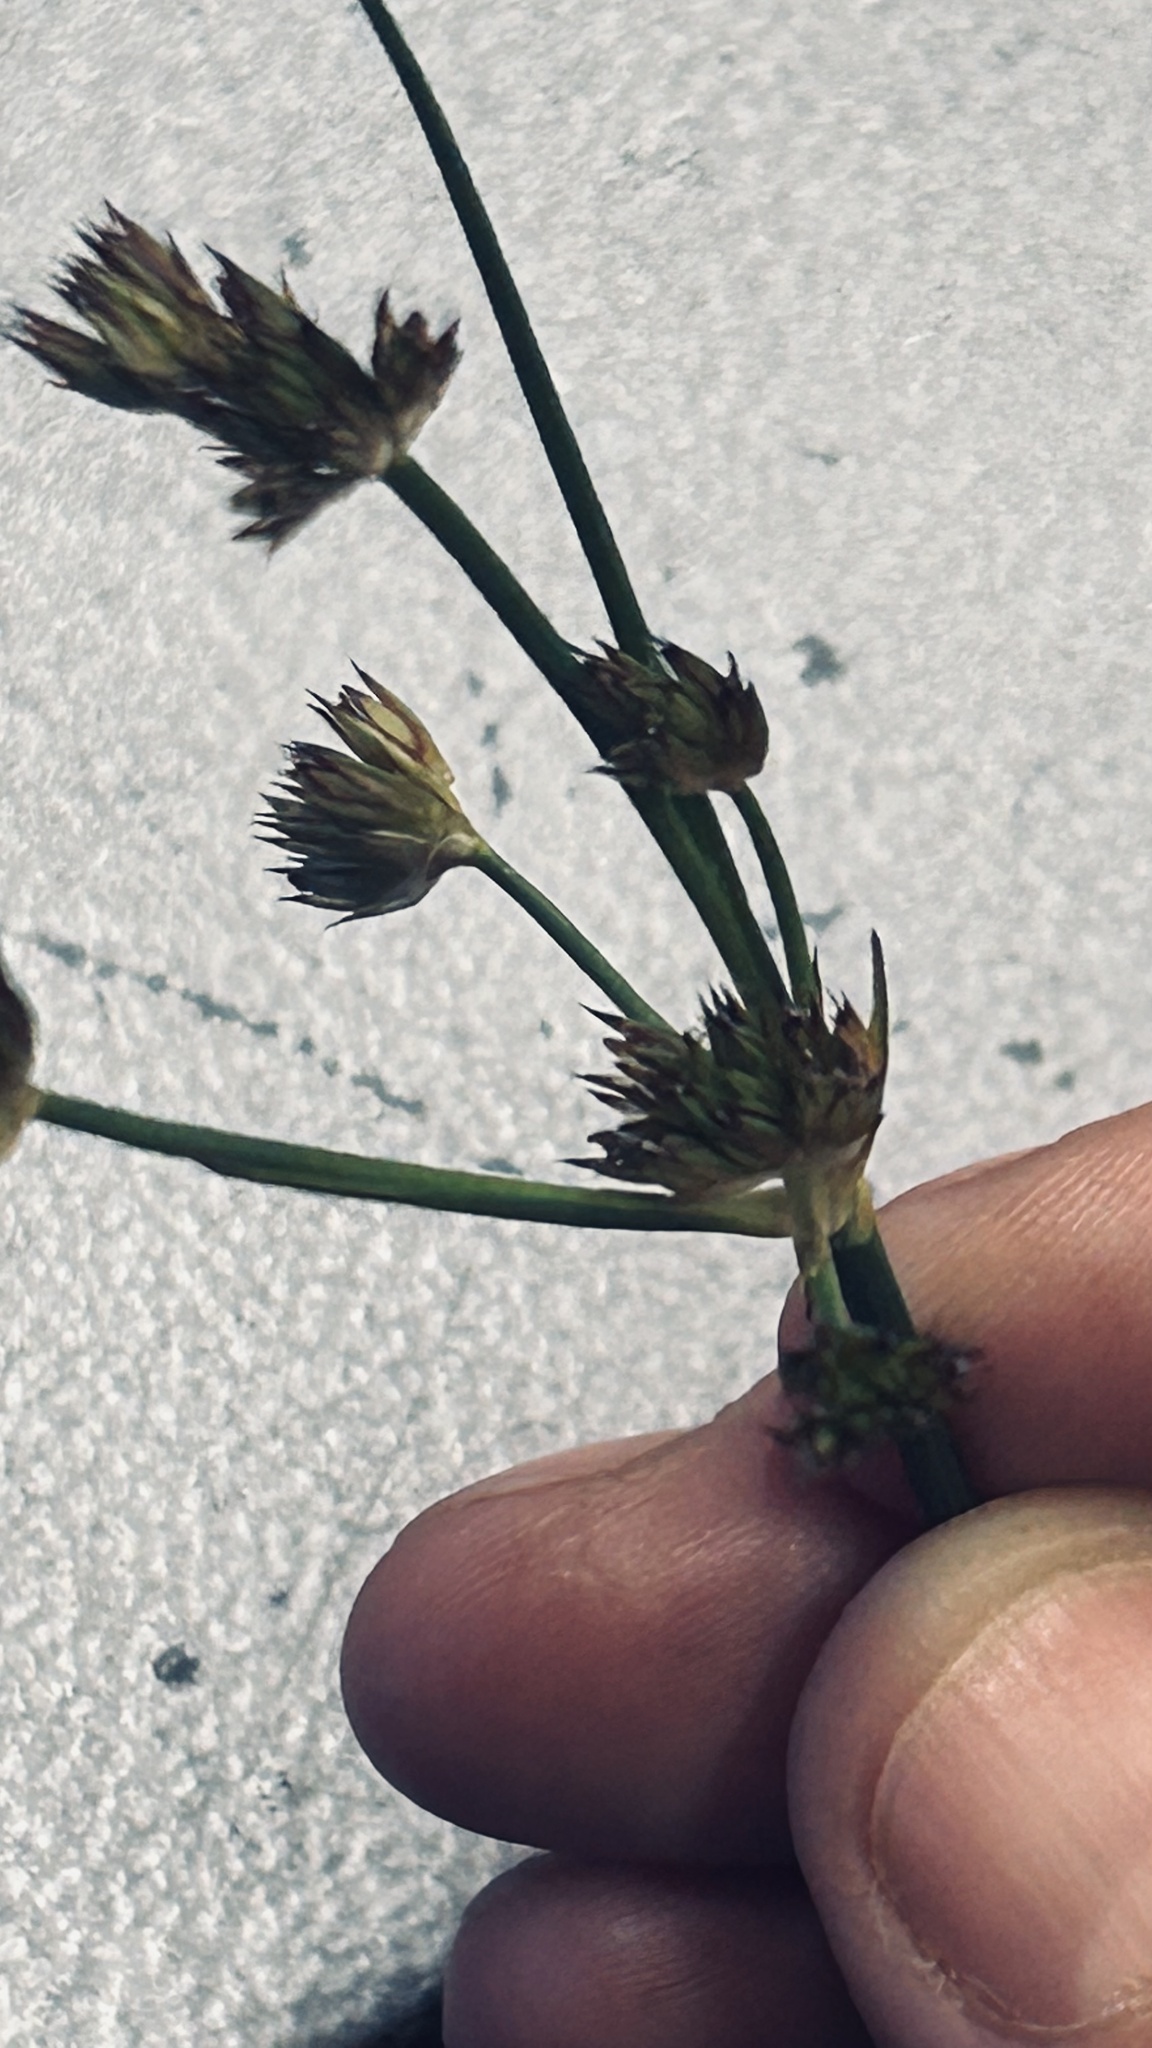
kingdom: Plantae
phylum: Tracheophyta
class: Liliopsida
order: Poales
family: Juncaceae
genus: Juncus
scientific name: Juncus lomatophyllus
